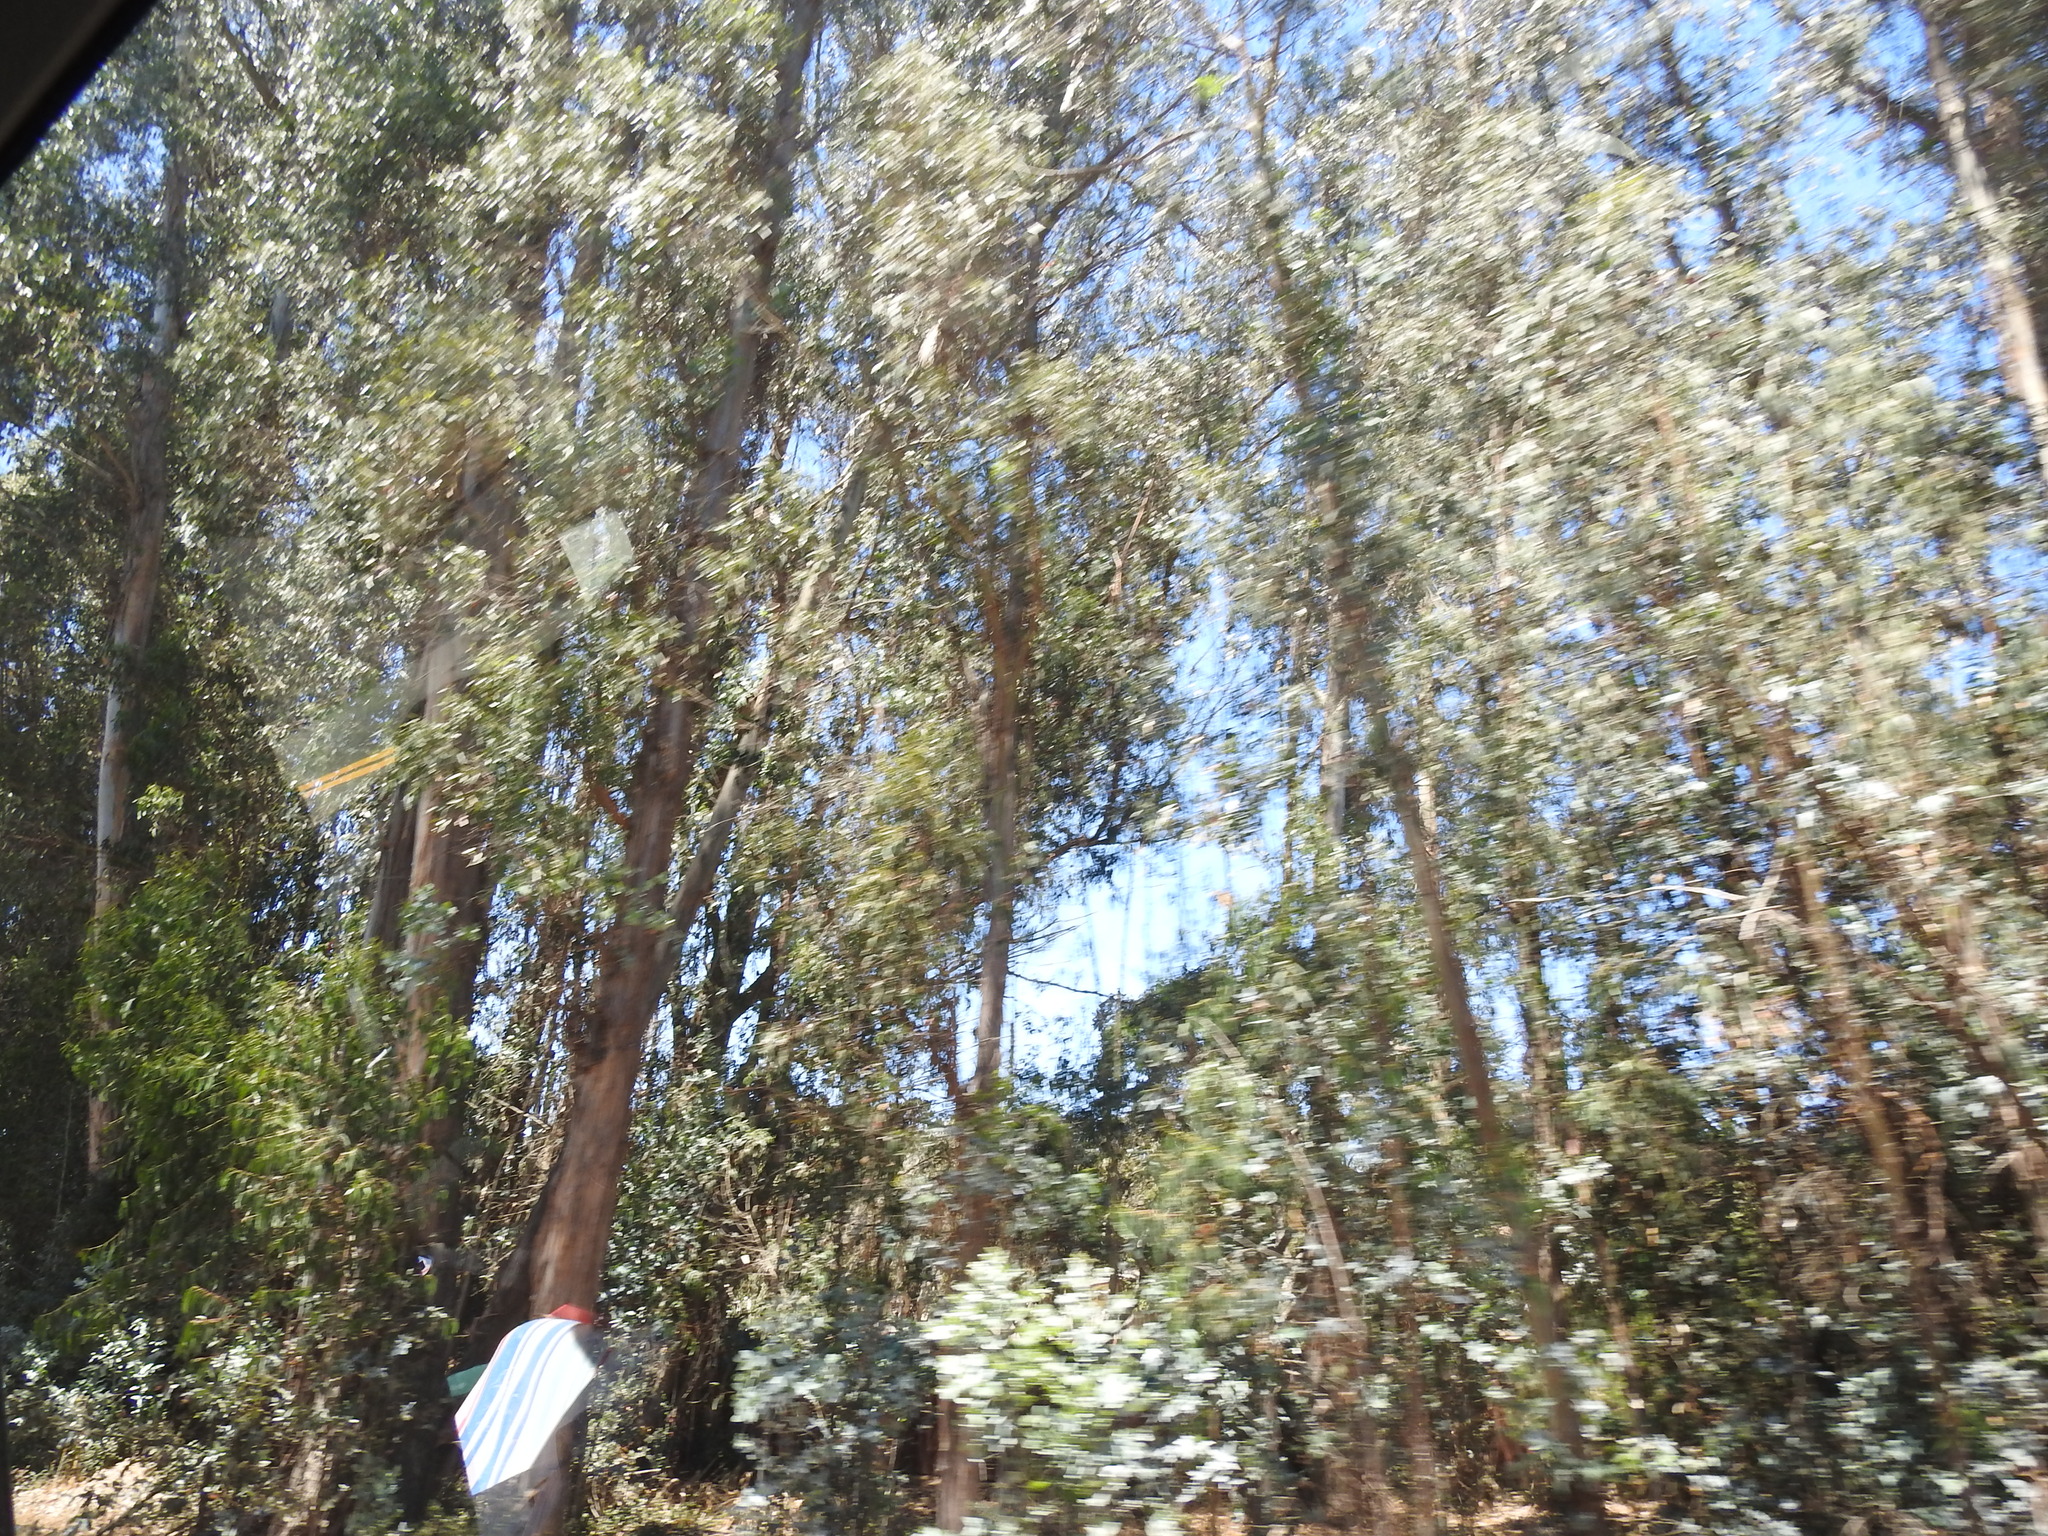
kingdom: Plantae
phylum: Tracheophyta
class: Magnoliopsida
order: Myrtales
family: Myrtaceae
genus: Eucalyptus
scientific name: Eucalyptus globulus
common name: Southern blue-gum
